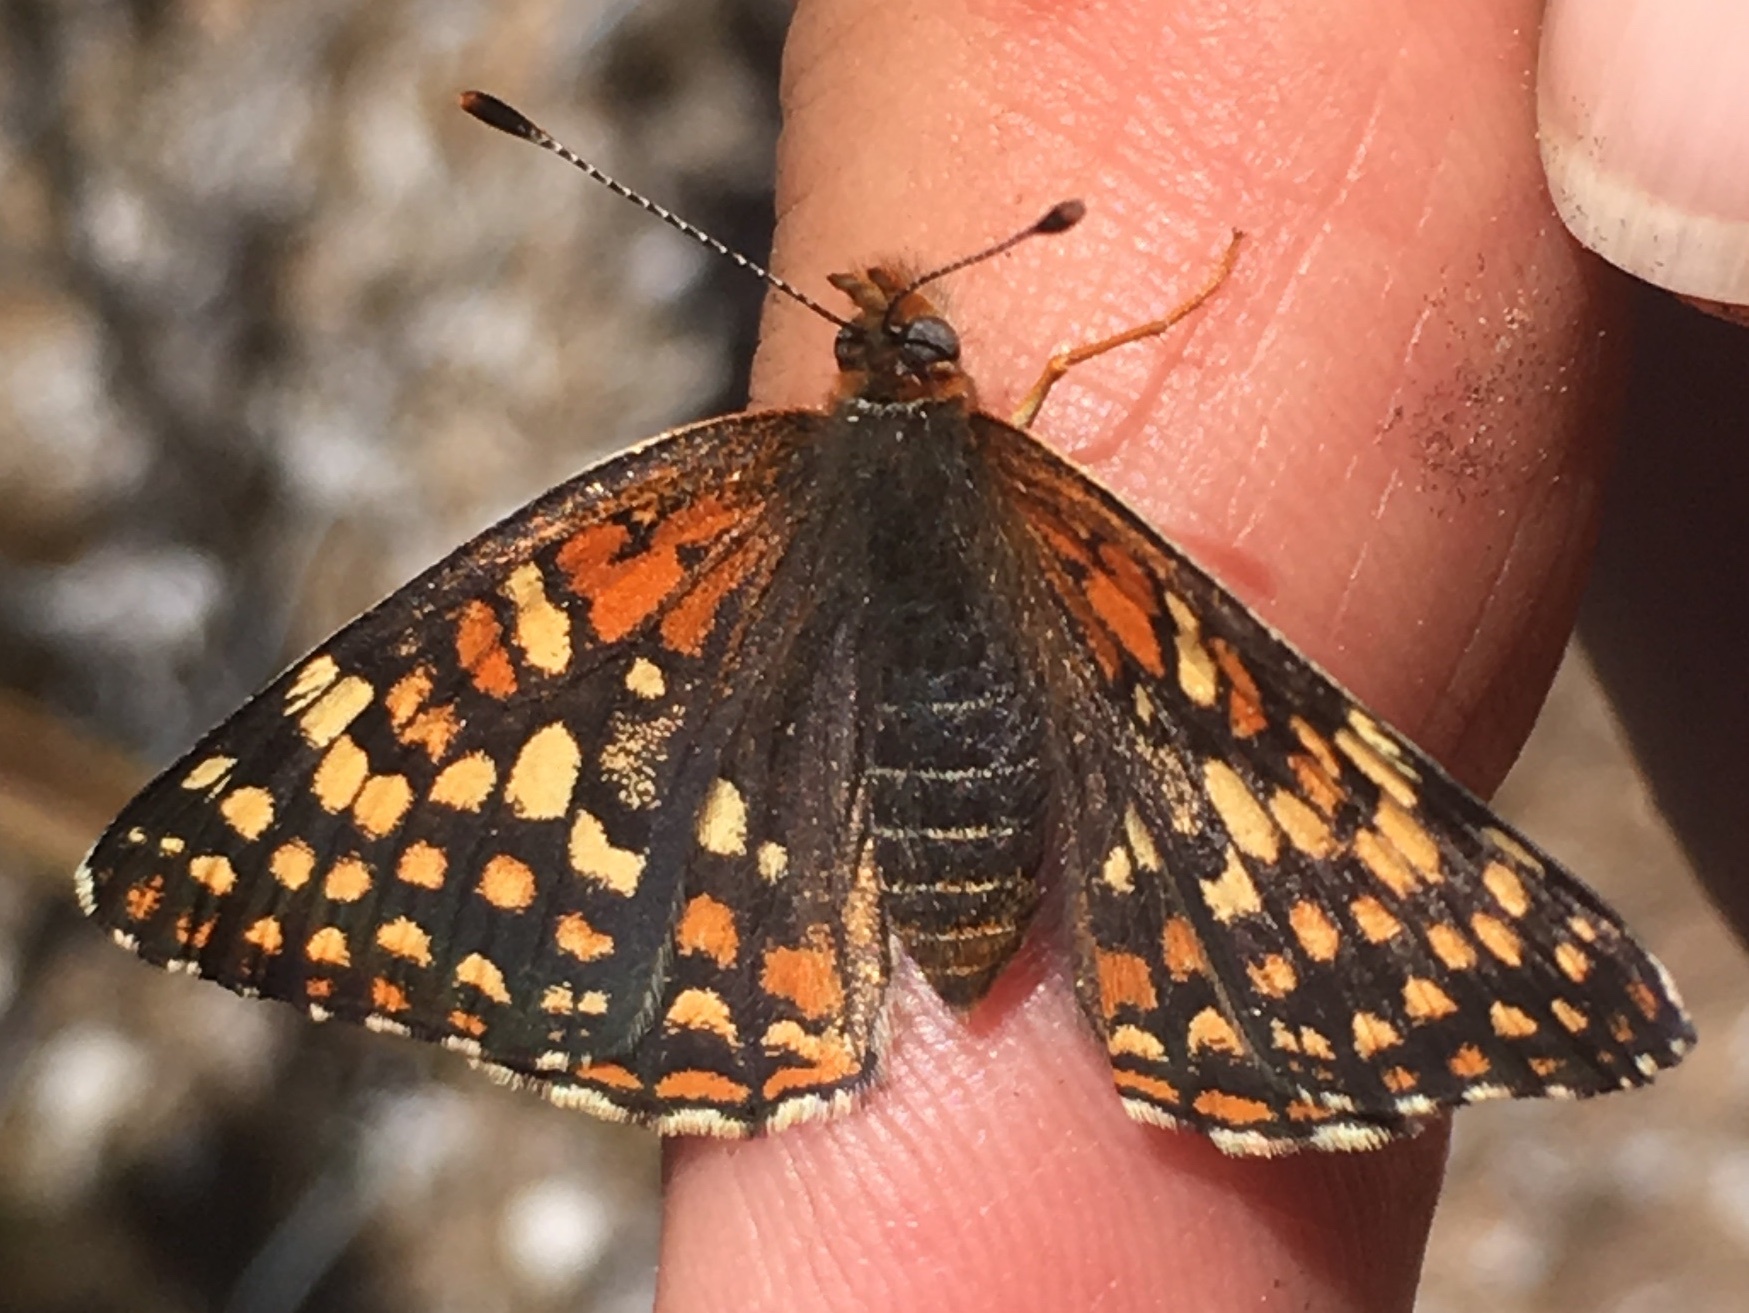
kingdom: Animalia
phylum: Arthropoda
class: Insecta
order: Lepidoptera
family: Nymphalidae
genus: Chlosyne
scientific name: Chlosyne gabbii
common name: Gabb's checkerspot
